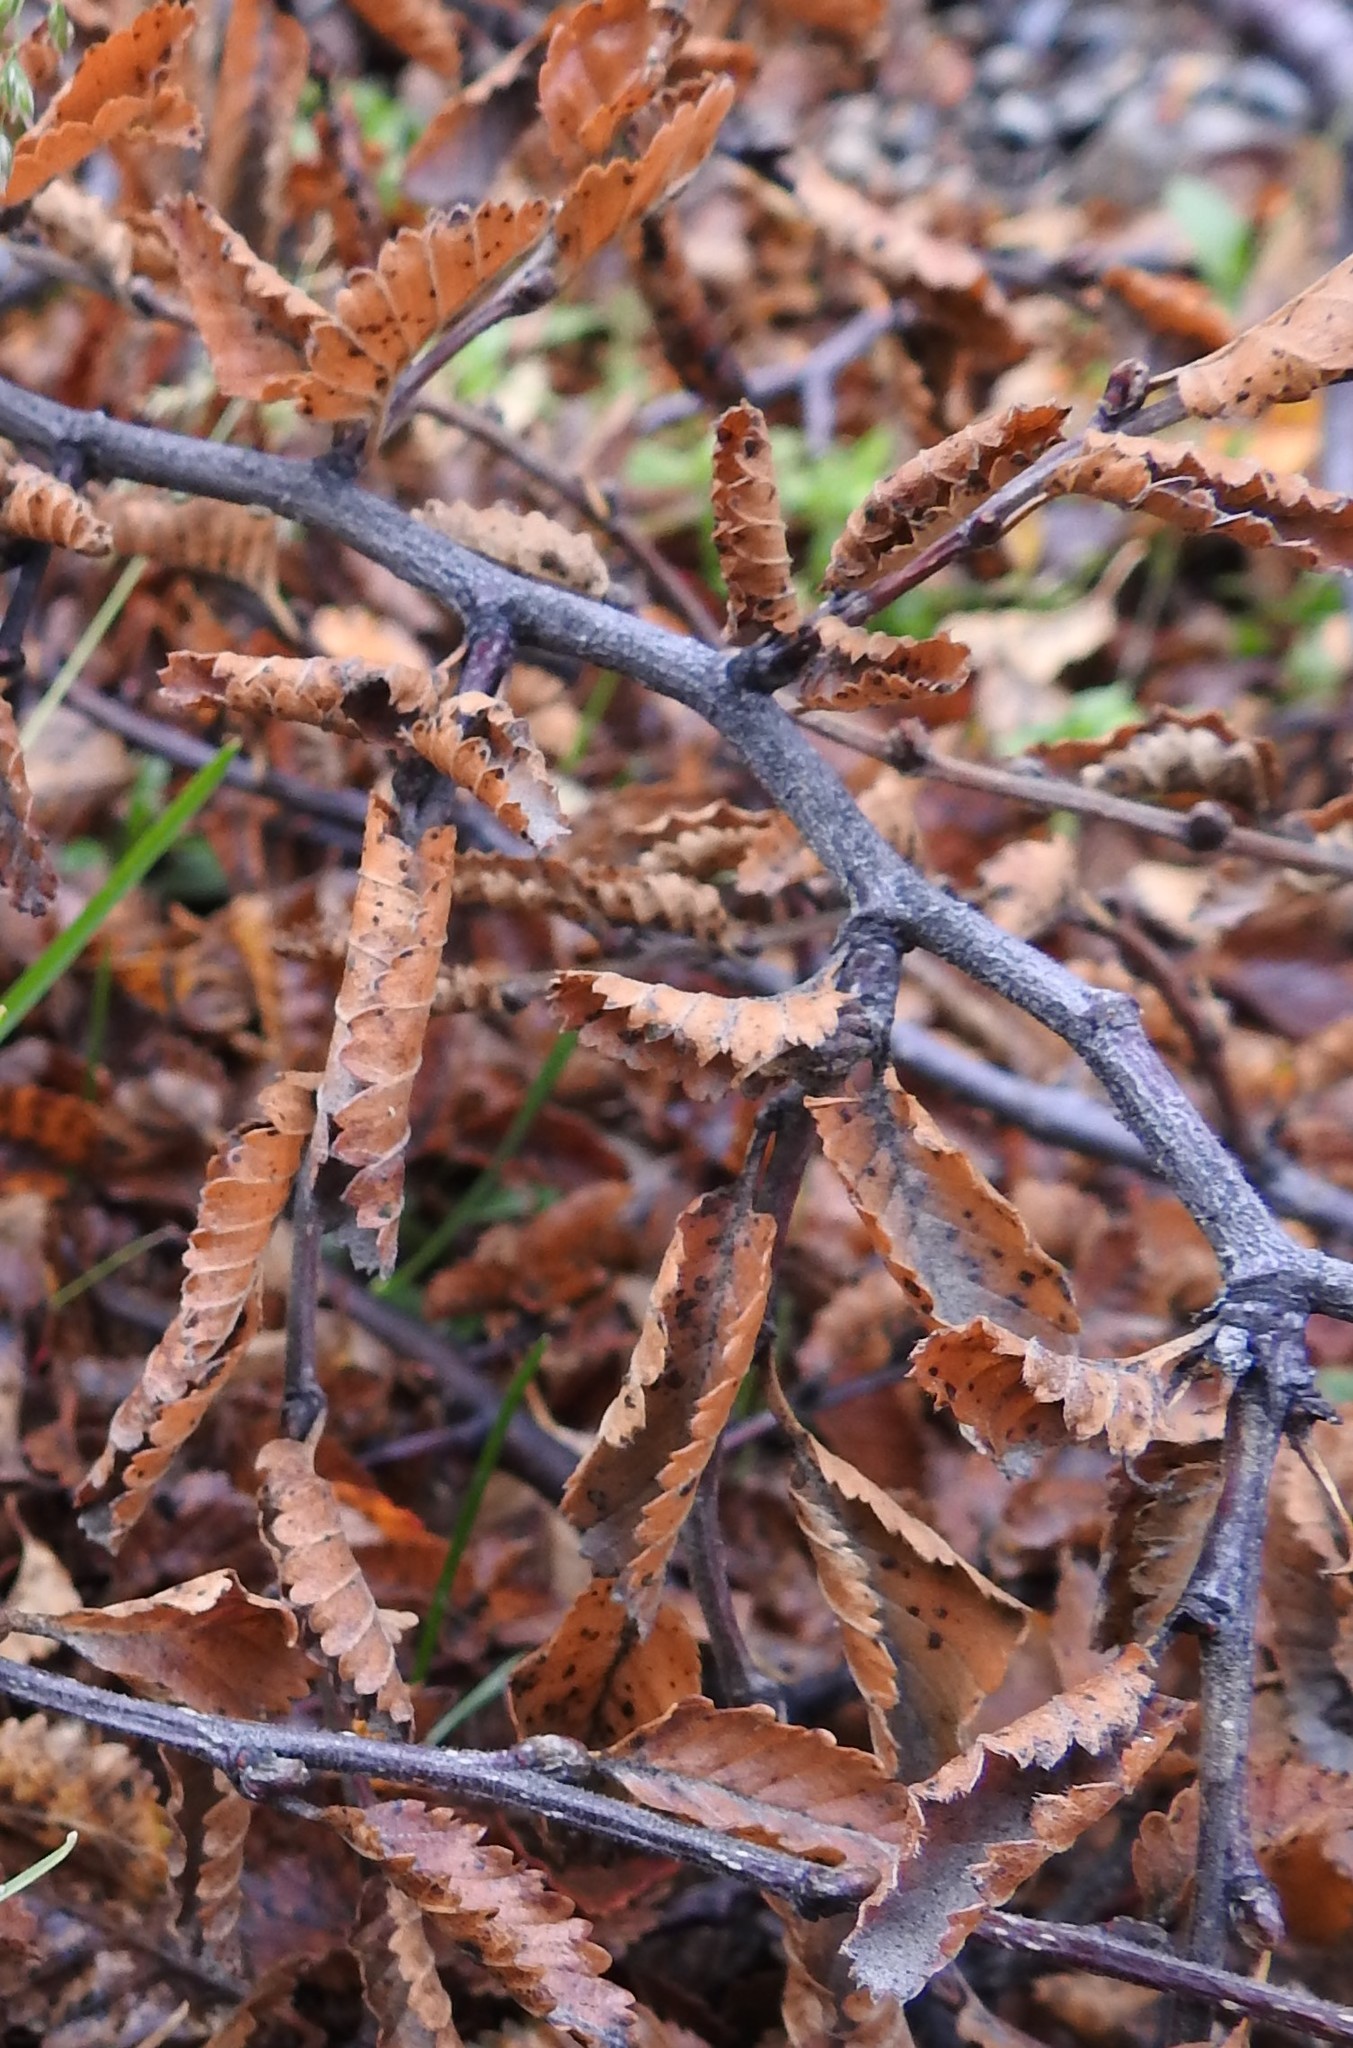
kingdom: Plantae
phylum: Tracheophyta
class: Magnoliopsida
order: Fagales
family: Nothofagaceae
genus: Nothofagus
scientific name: Nothofagus pumilio
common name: Lenga beech
